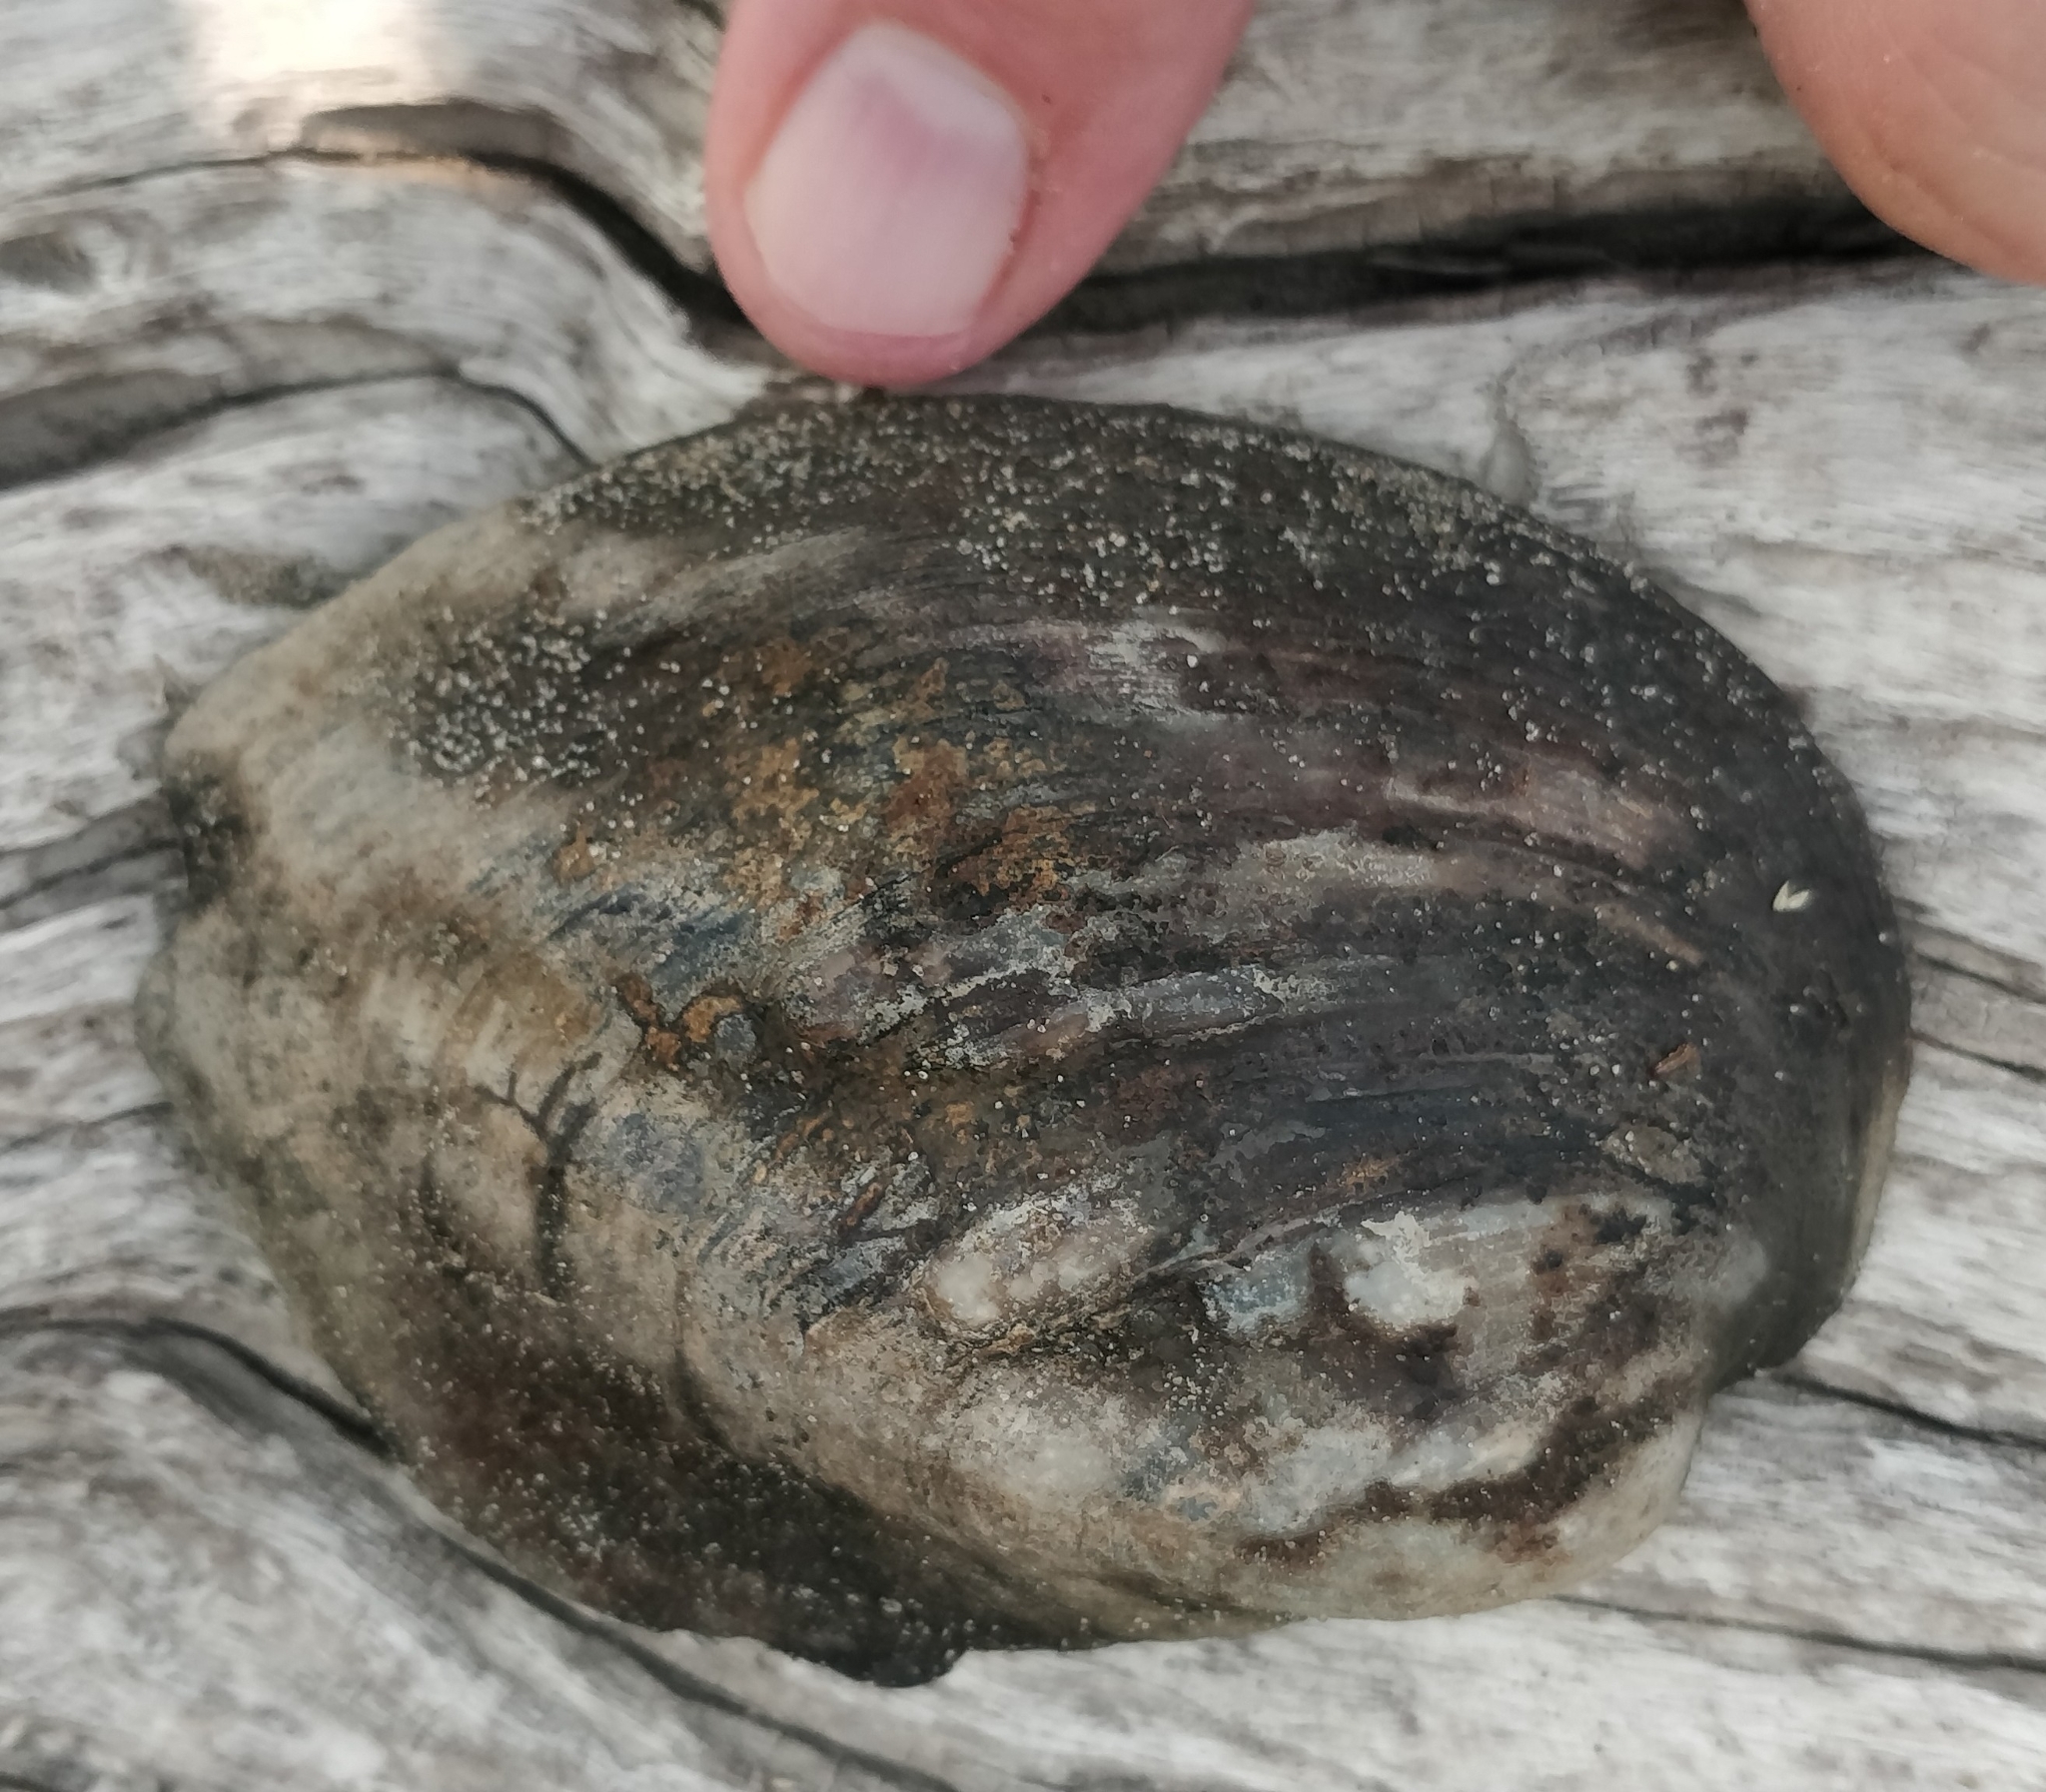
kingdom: Animalia
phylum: Mollusca
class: Bivalvia
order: Unionida
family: Unionidae
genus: Amblema
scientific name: Amblema plicata
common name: Threeridge
